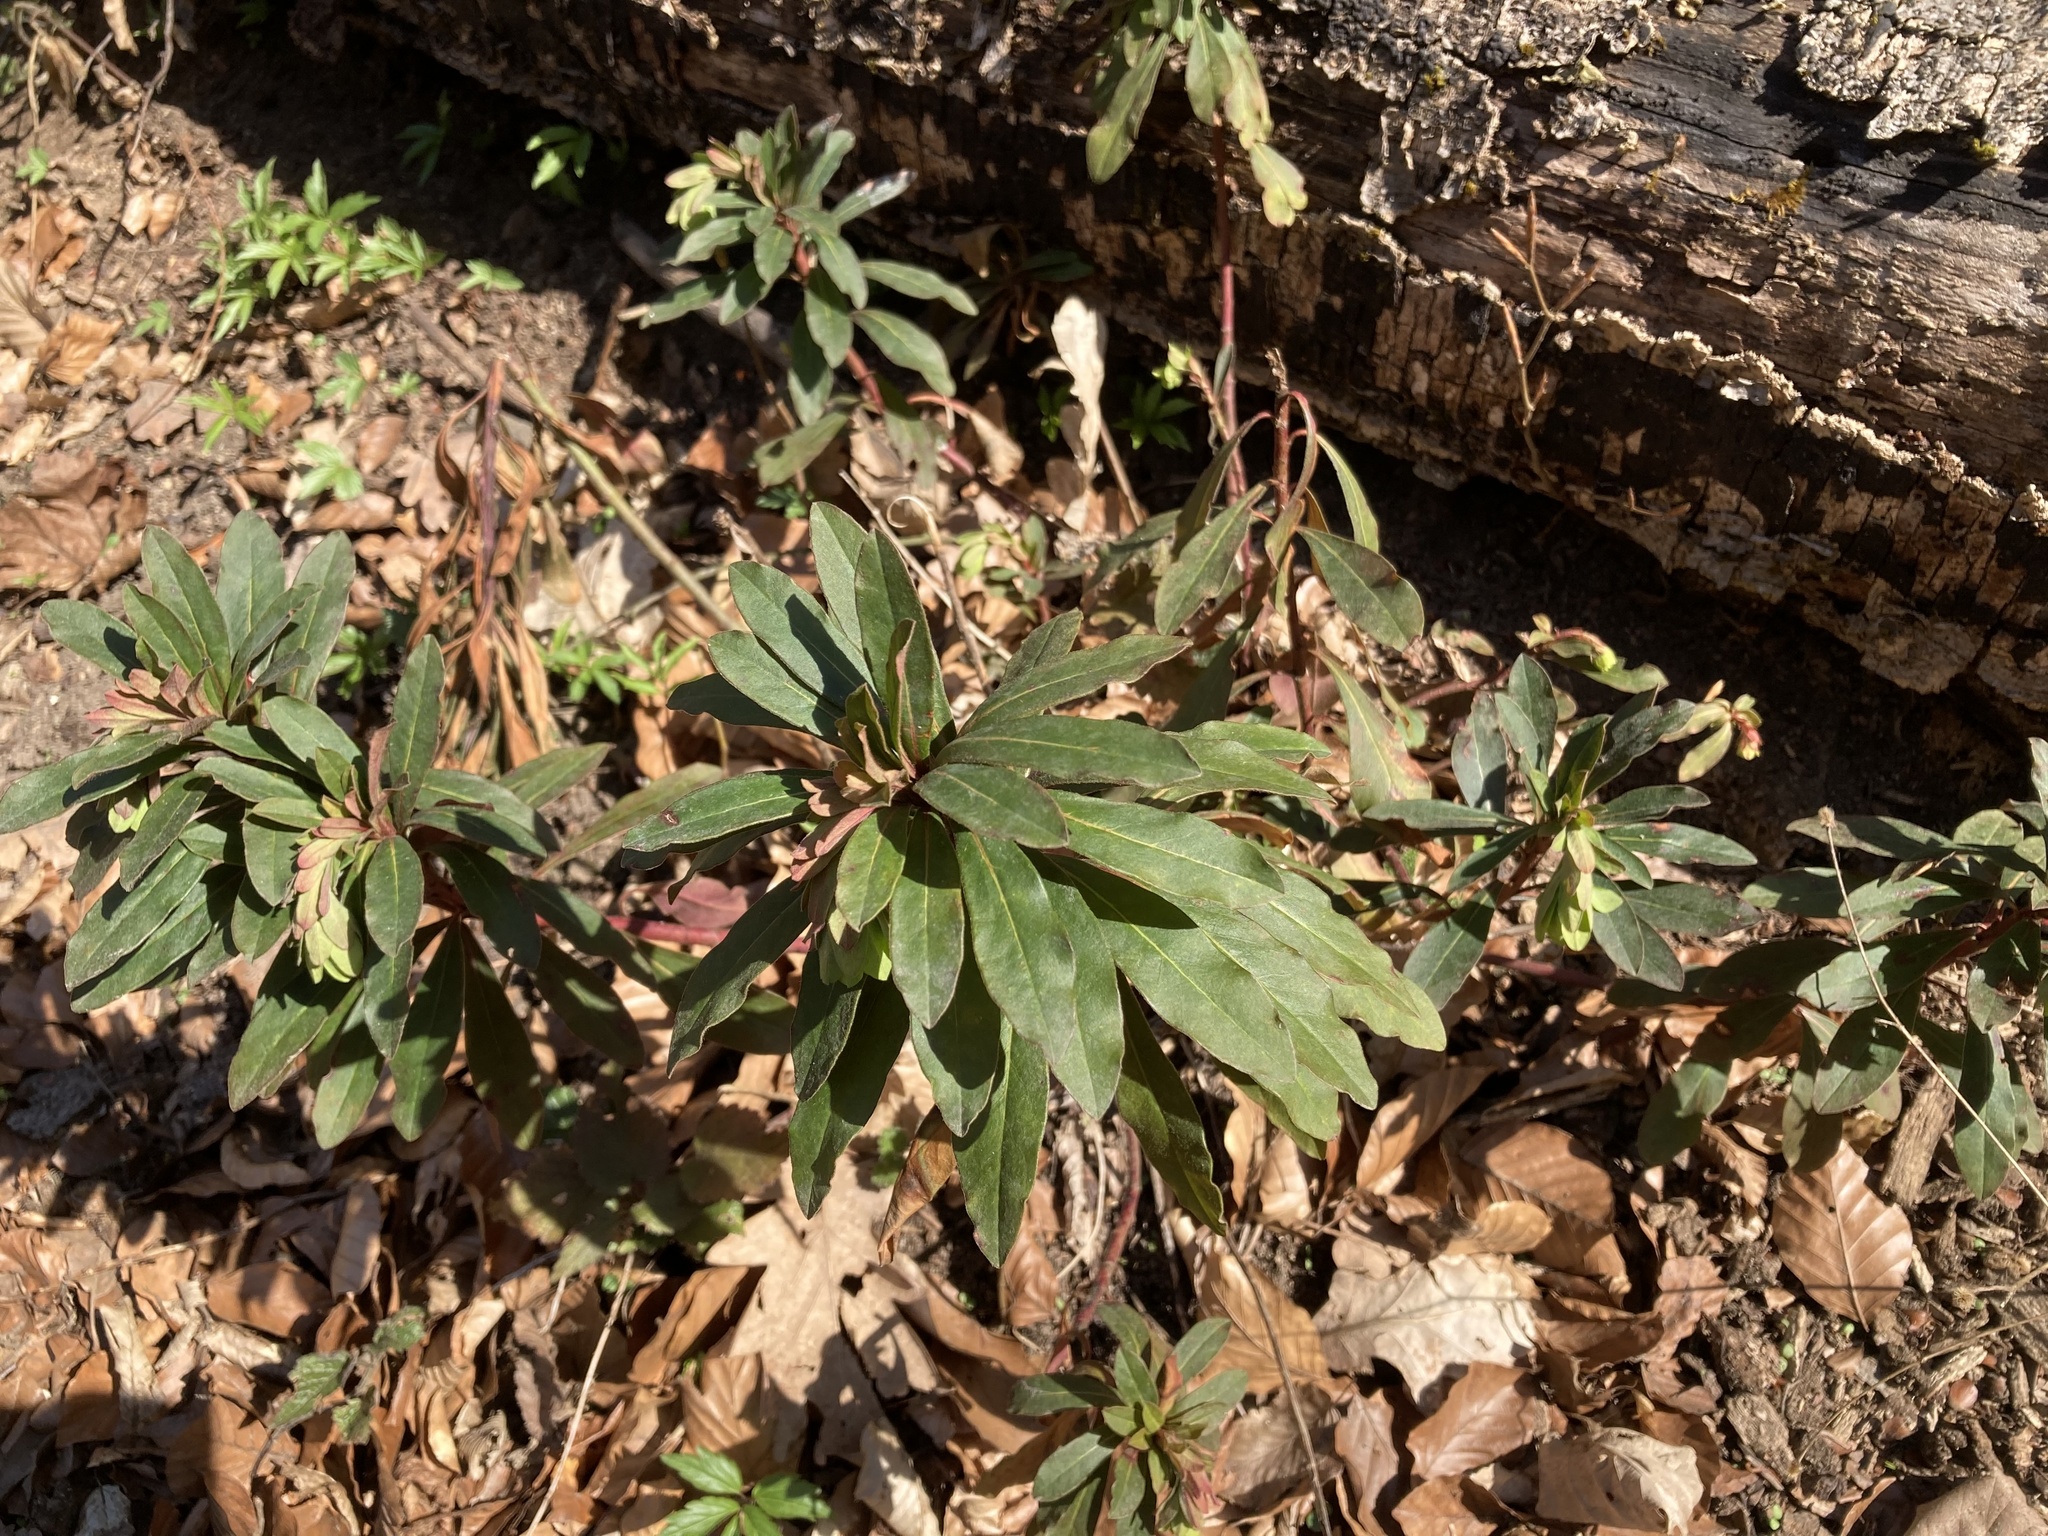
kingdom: Plantae
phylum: Tracheophyta
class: Magnoliopsida
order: Malpighiales
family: Euphorbiaceae
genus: Euphorbia
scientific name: Euphorbia amygdaloides
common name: Wood spurge
